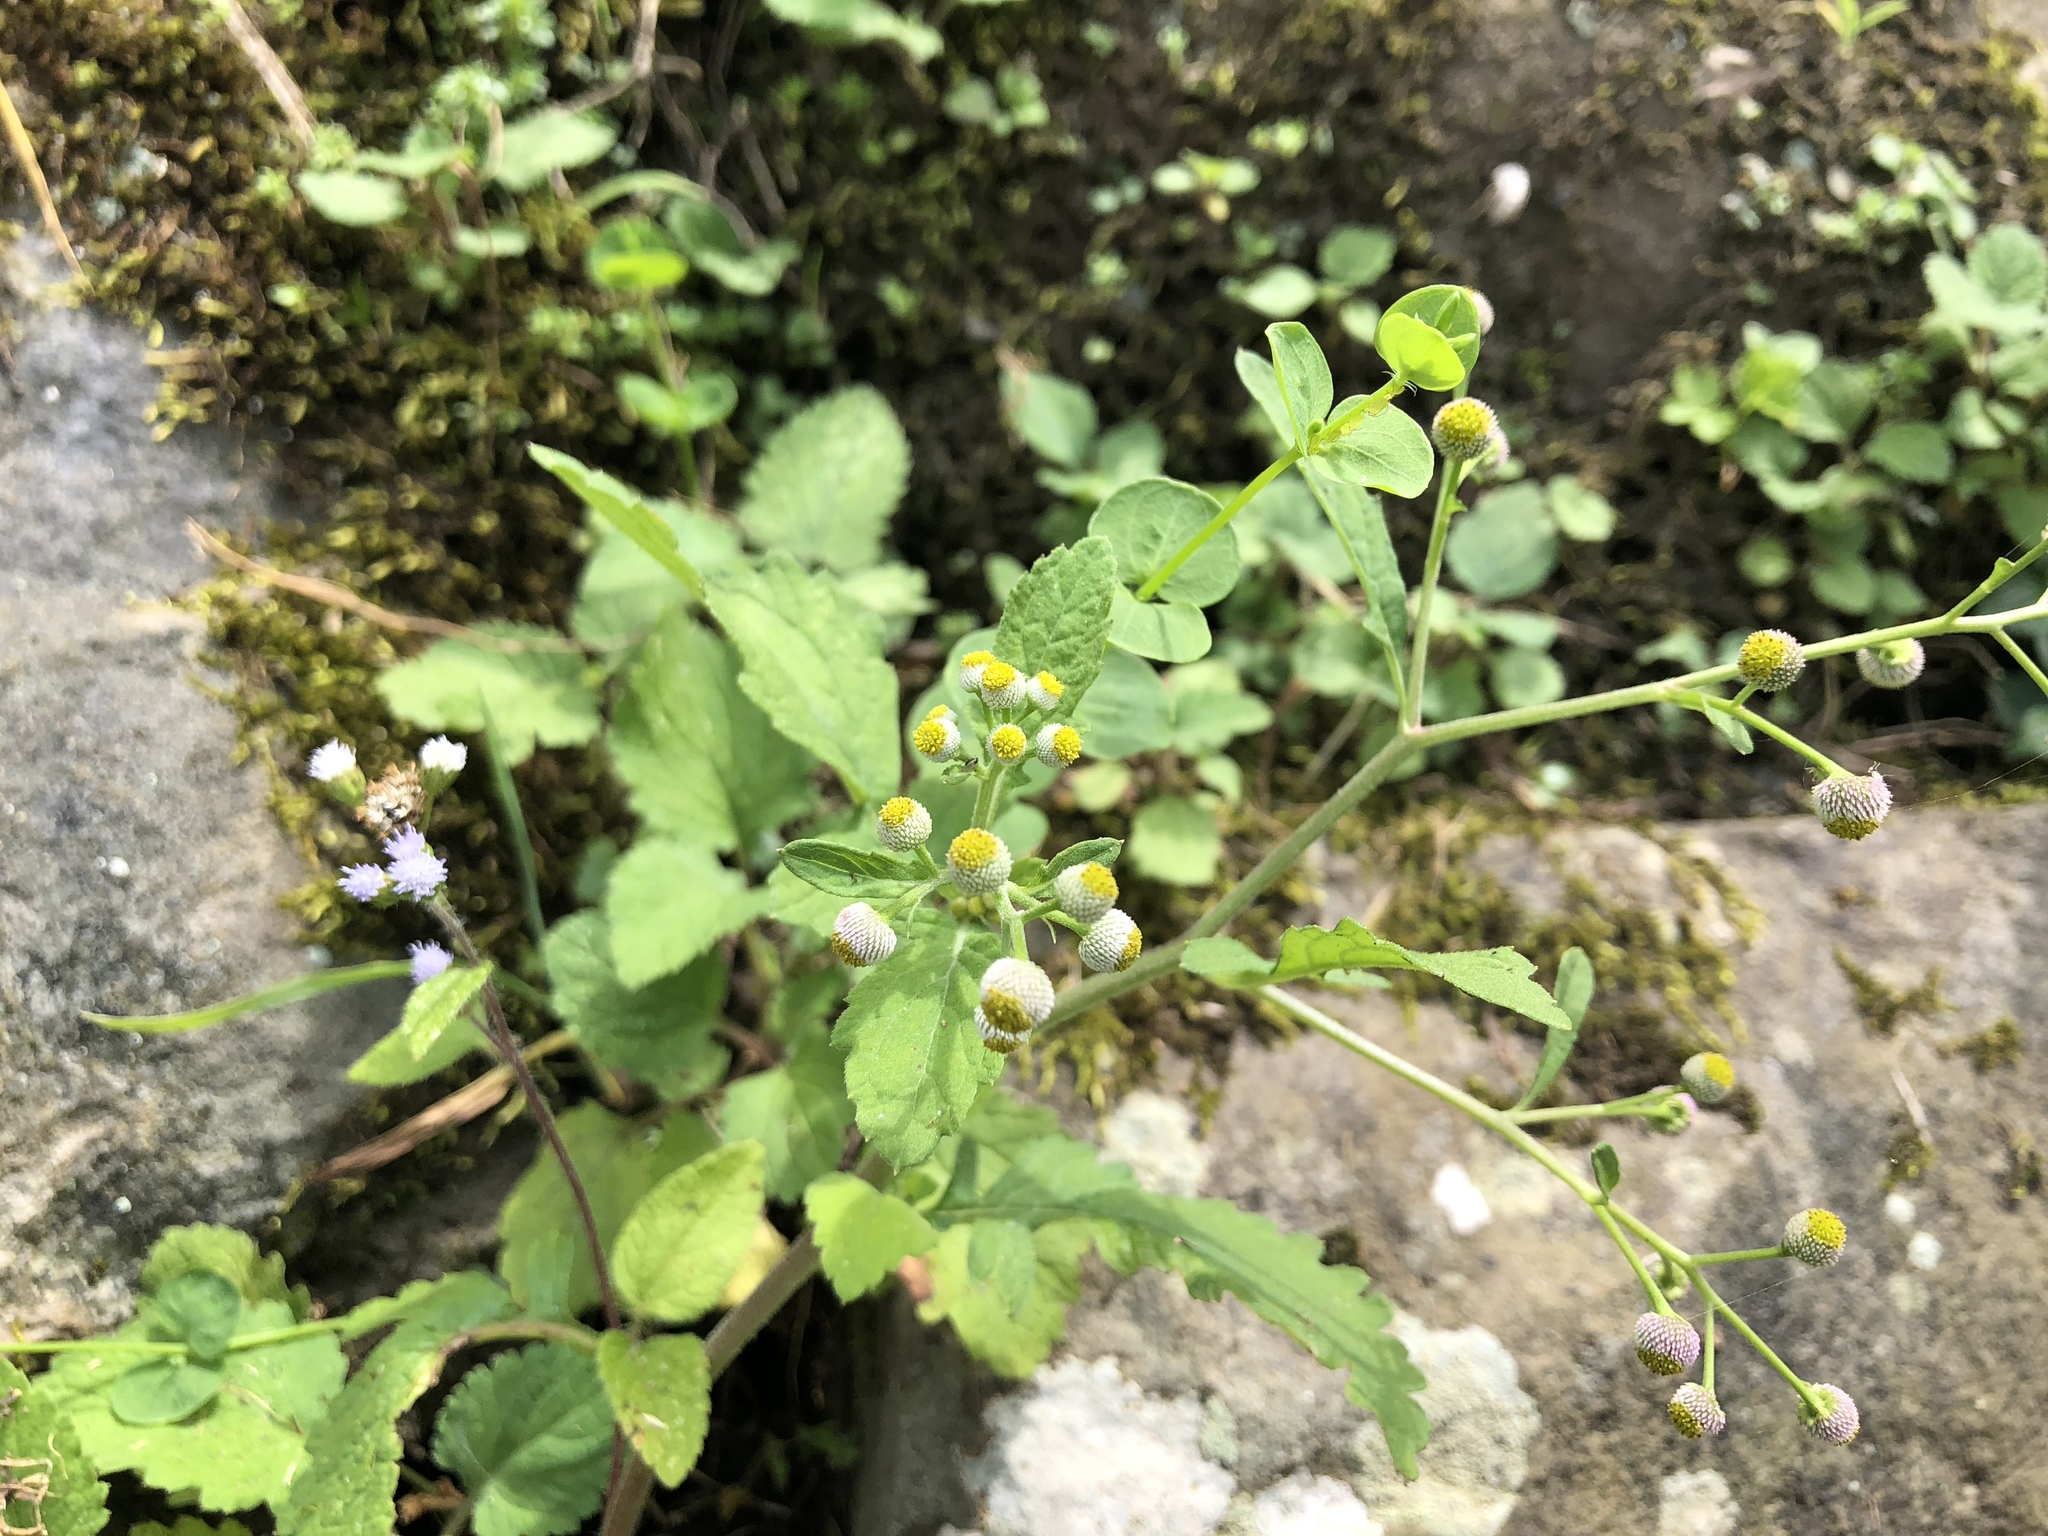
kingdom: Plantae
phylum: Tracheophyta
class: Magnoliopsida
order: Asterales
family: Asteraceae
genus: Dichrocephala
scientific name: Dichrocephala integrifolia
